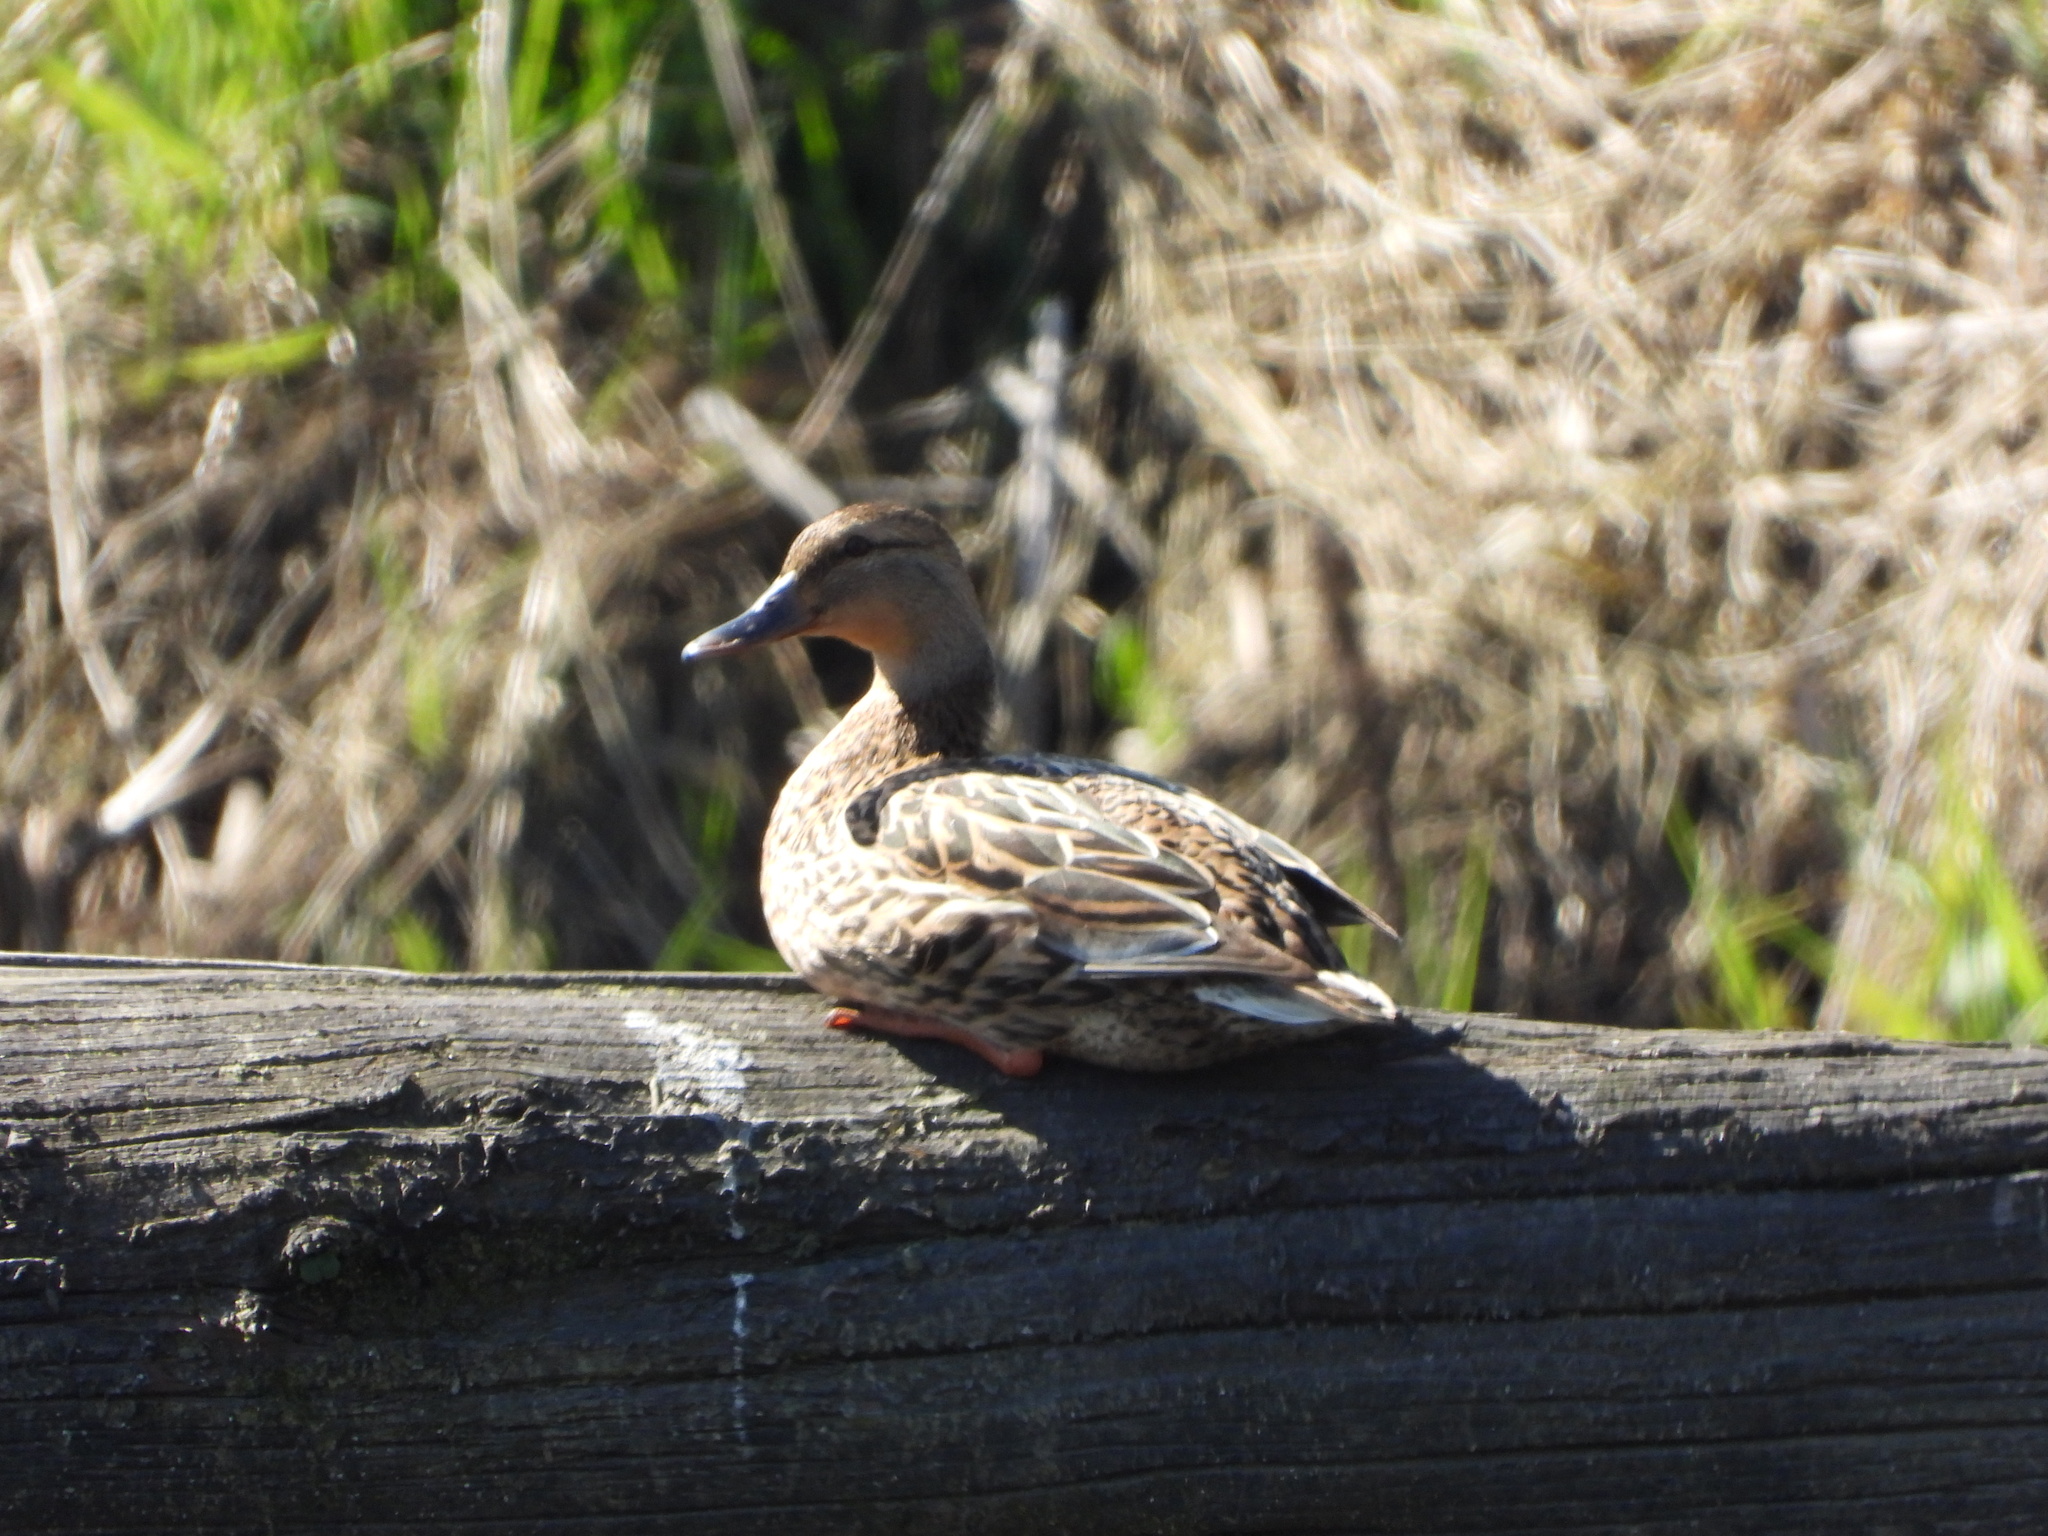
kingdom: Animalia
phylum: Chordata
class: Aves
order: Anseriformes
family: Anatidae
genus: Anas
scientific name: Anas platyrhynchos
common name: Mallard
